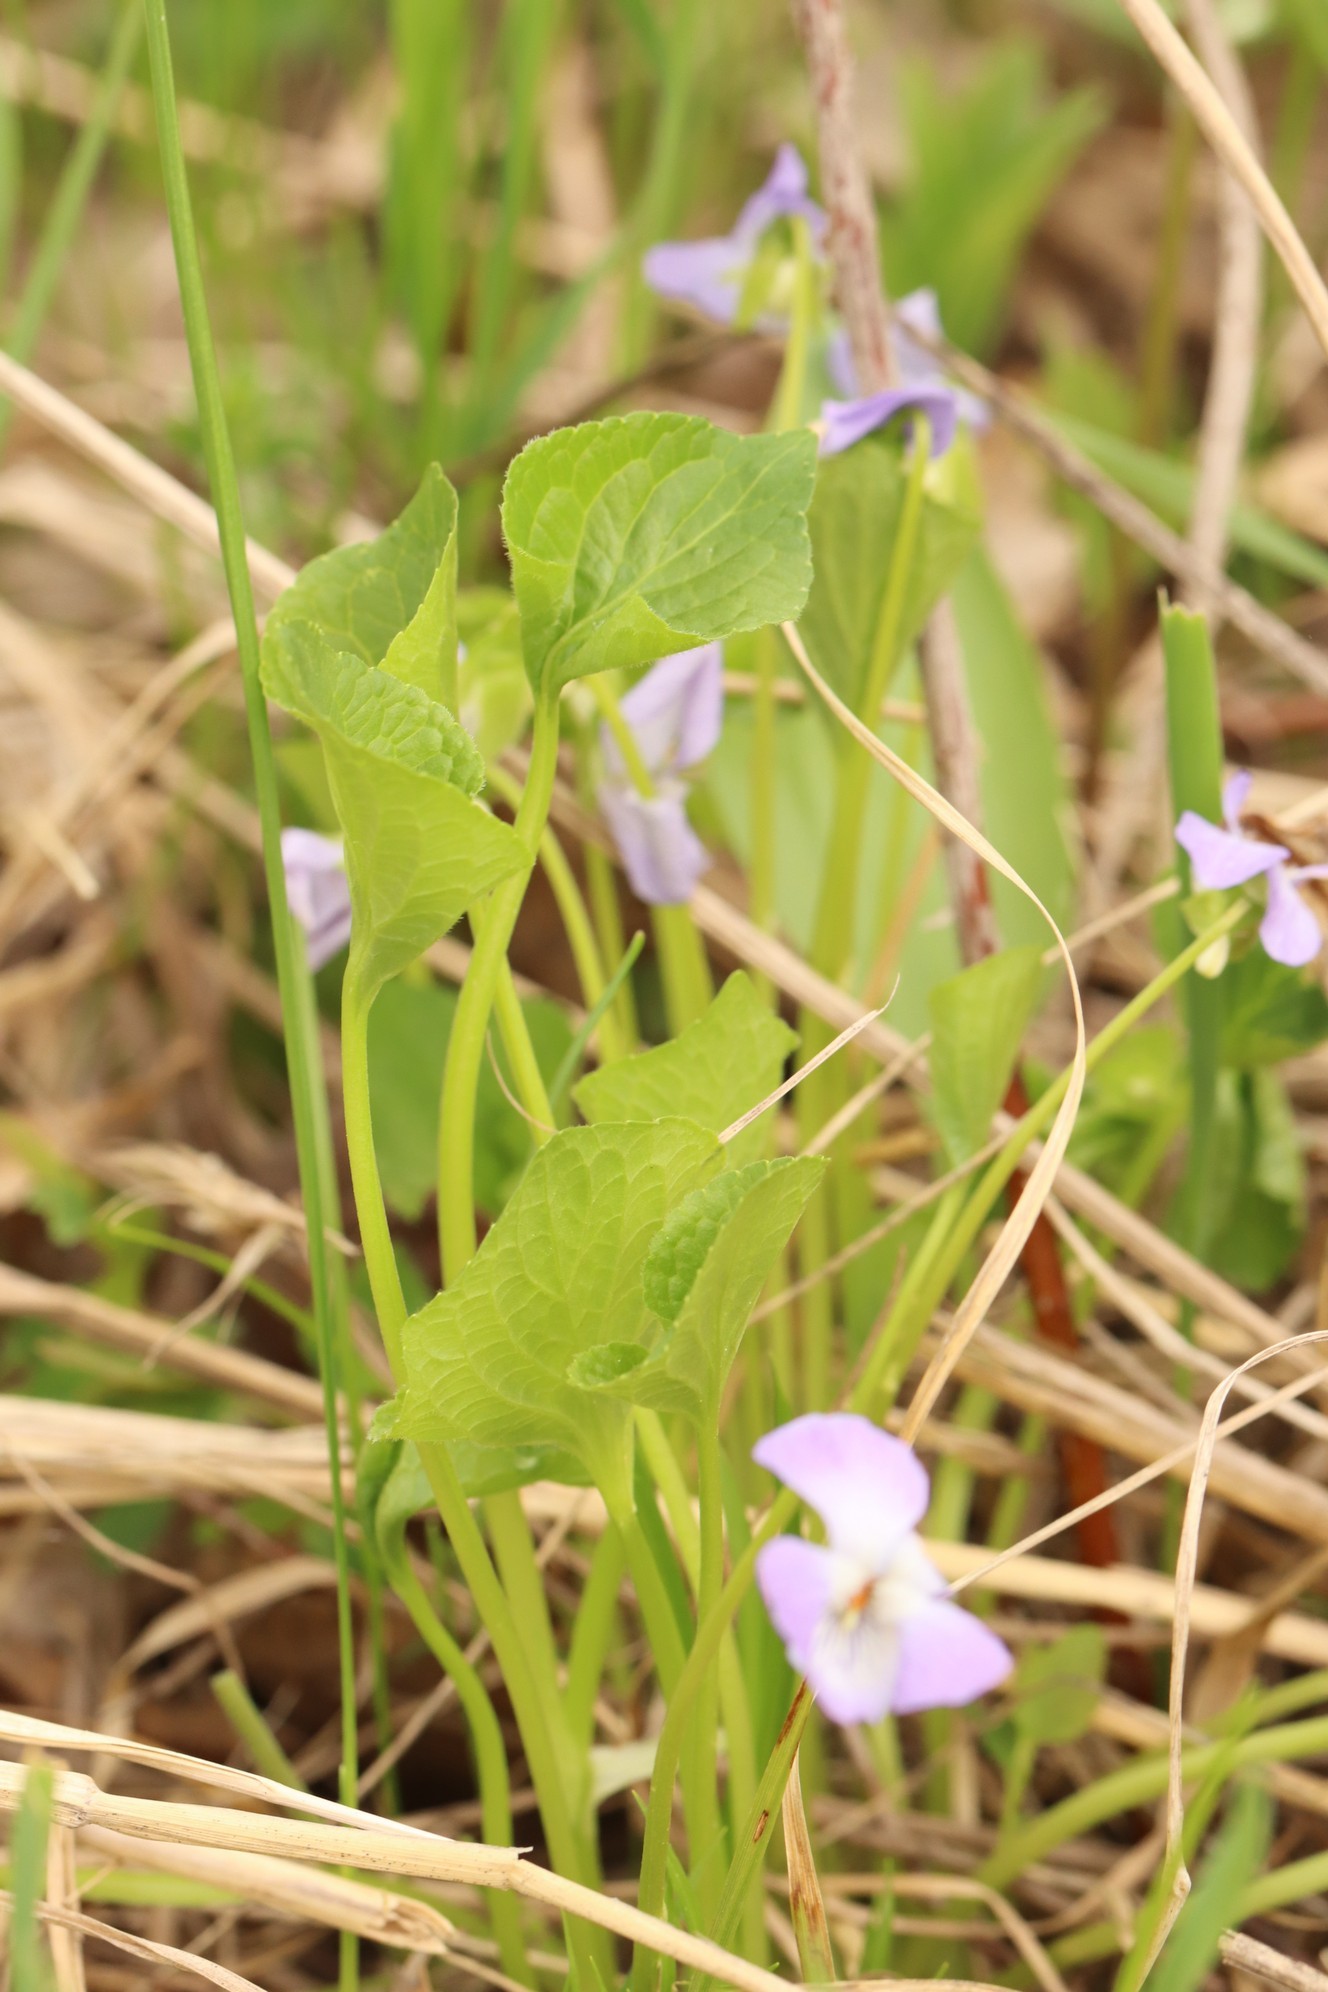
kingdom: Plantae
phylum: Tracheophyta
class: Magnoliopsida
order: Malpighiales
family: Violaceae
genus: Viola
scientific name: Viola mirabilis
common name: Wonder violet
